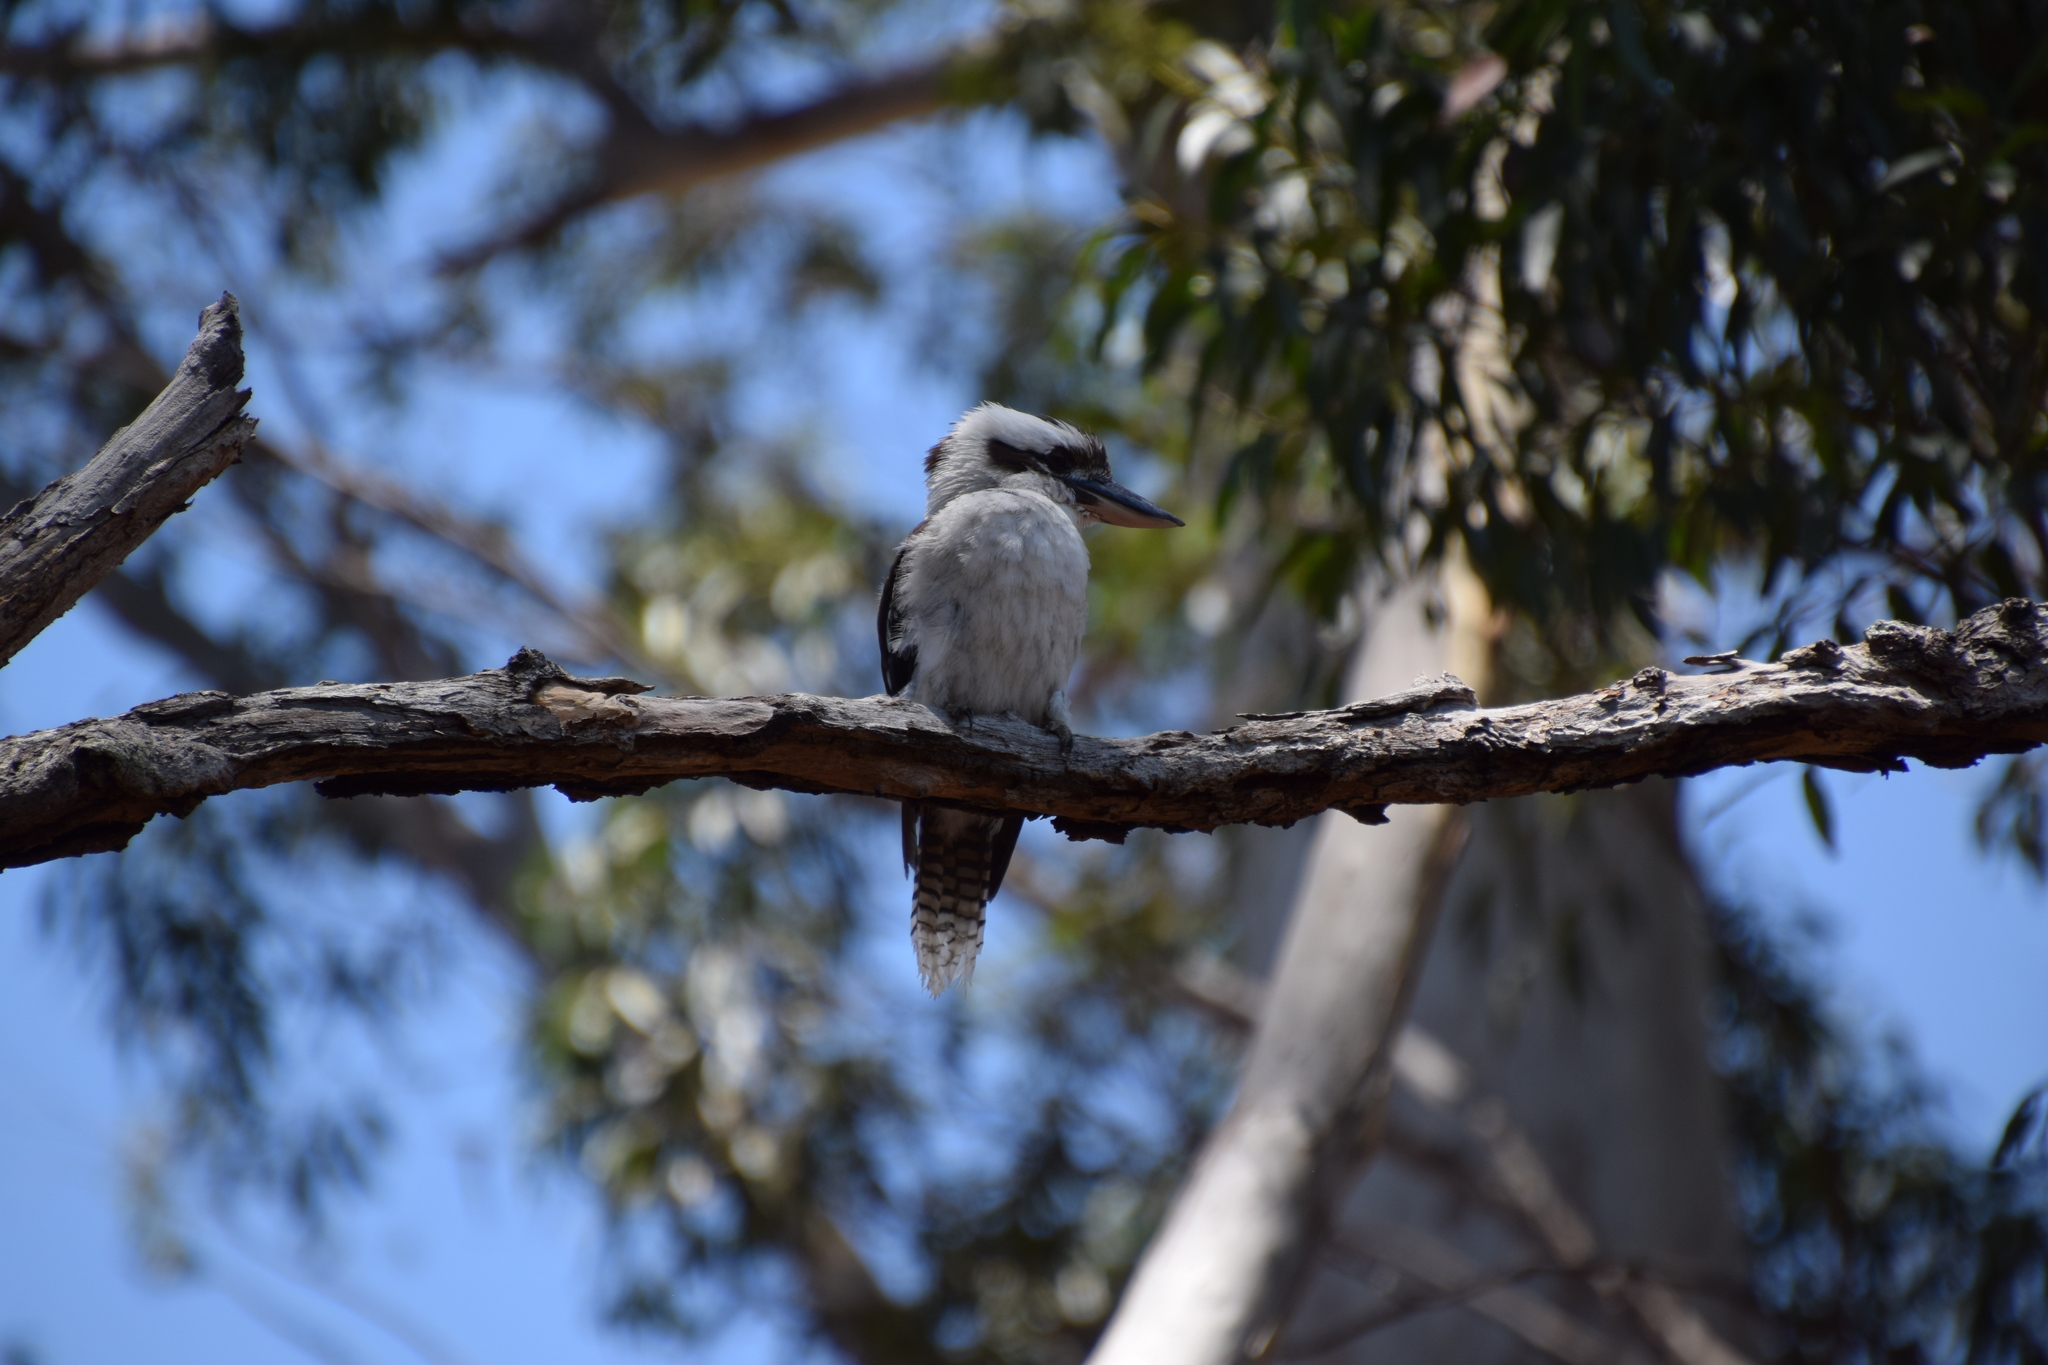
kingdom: Animalia
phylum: Chordata
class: Aves
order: Coraciiformes
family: Alcedinidae
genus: Dacelo
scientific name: Dacelo novaeguineae
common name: Laughing kookaburra
